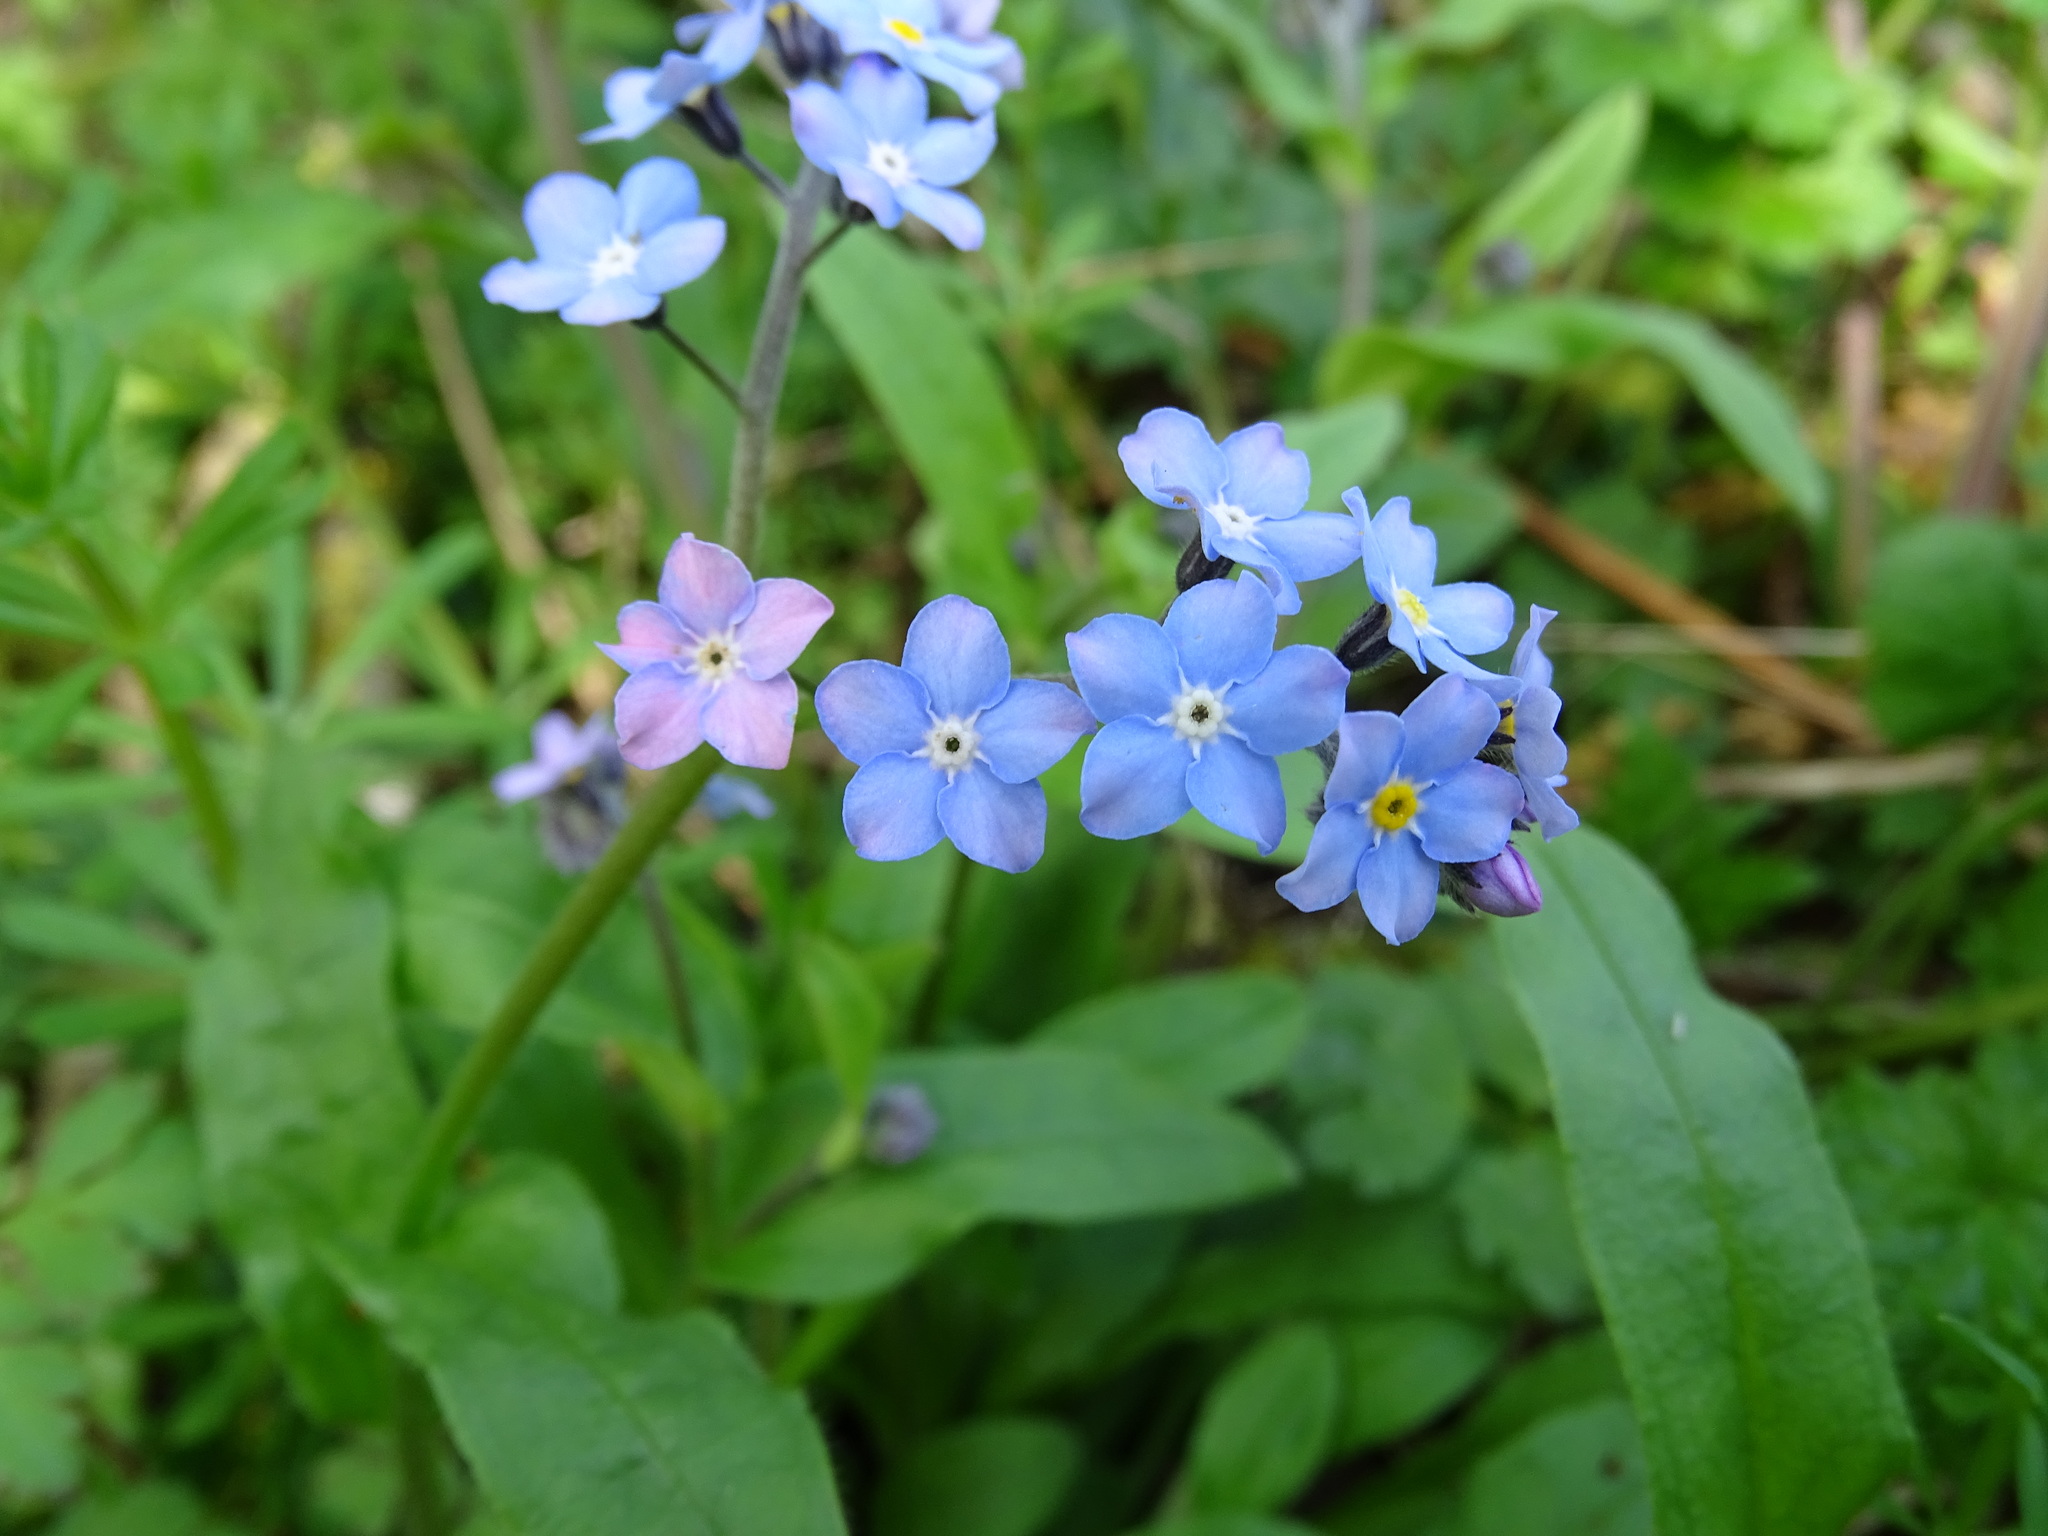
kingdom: Plantae
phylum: Tracheophyta
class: Magnoliopsida
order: Boraginales
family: Boraginaceae
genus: Myosotis
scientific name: Myosotis sylvatica
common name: Wood forget-me-not
